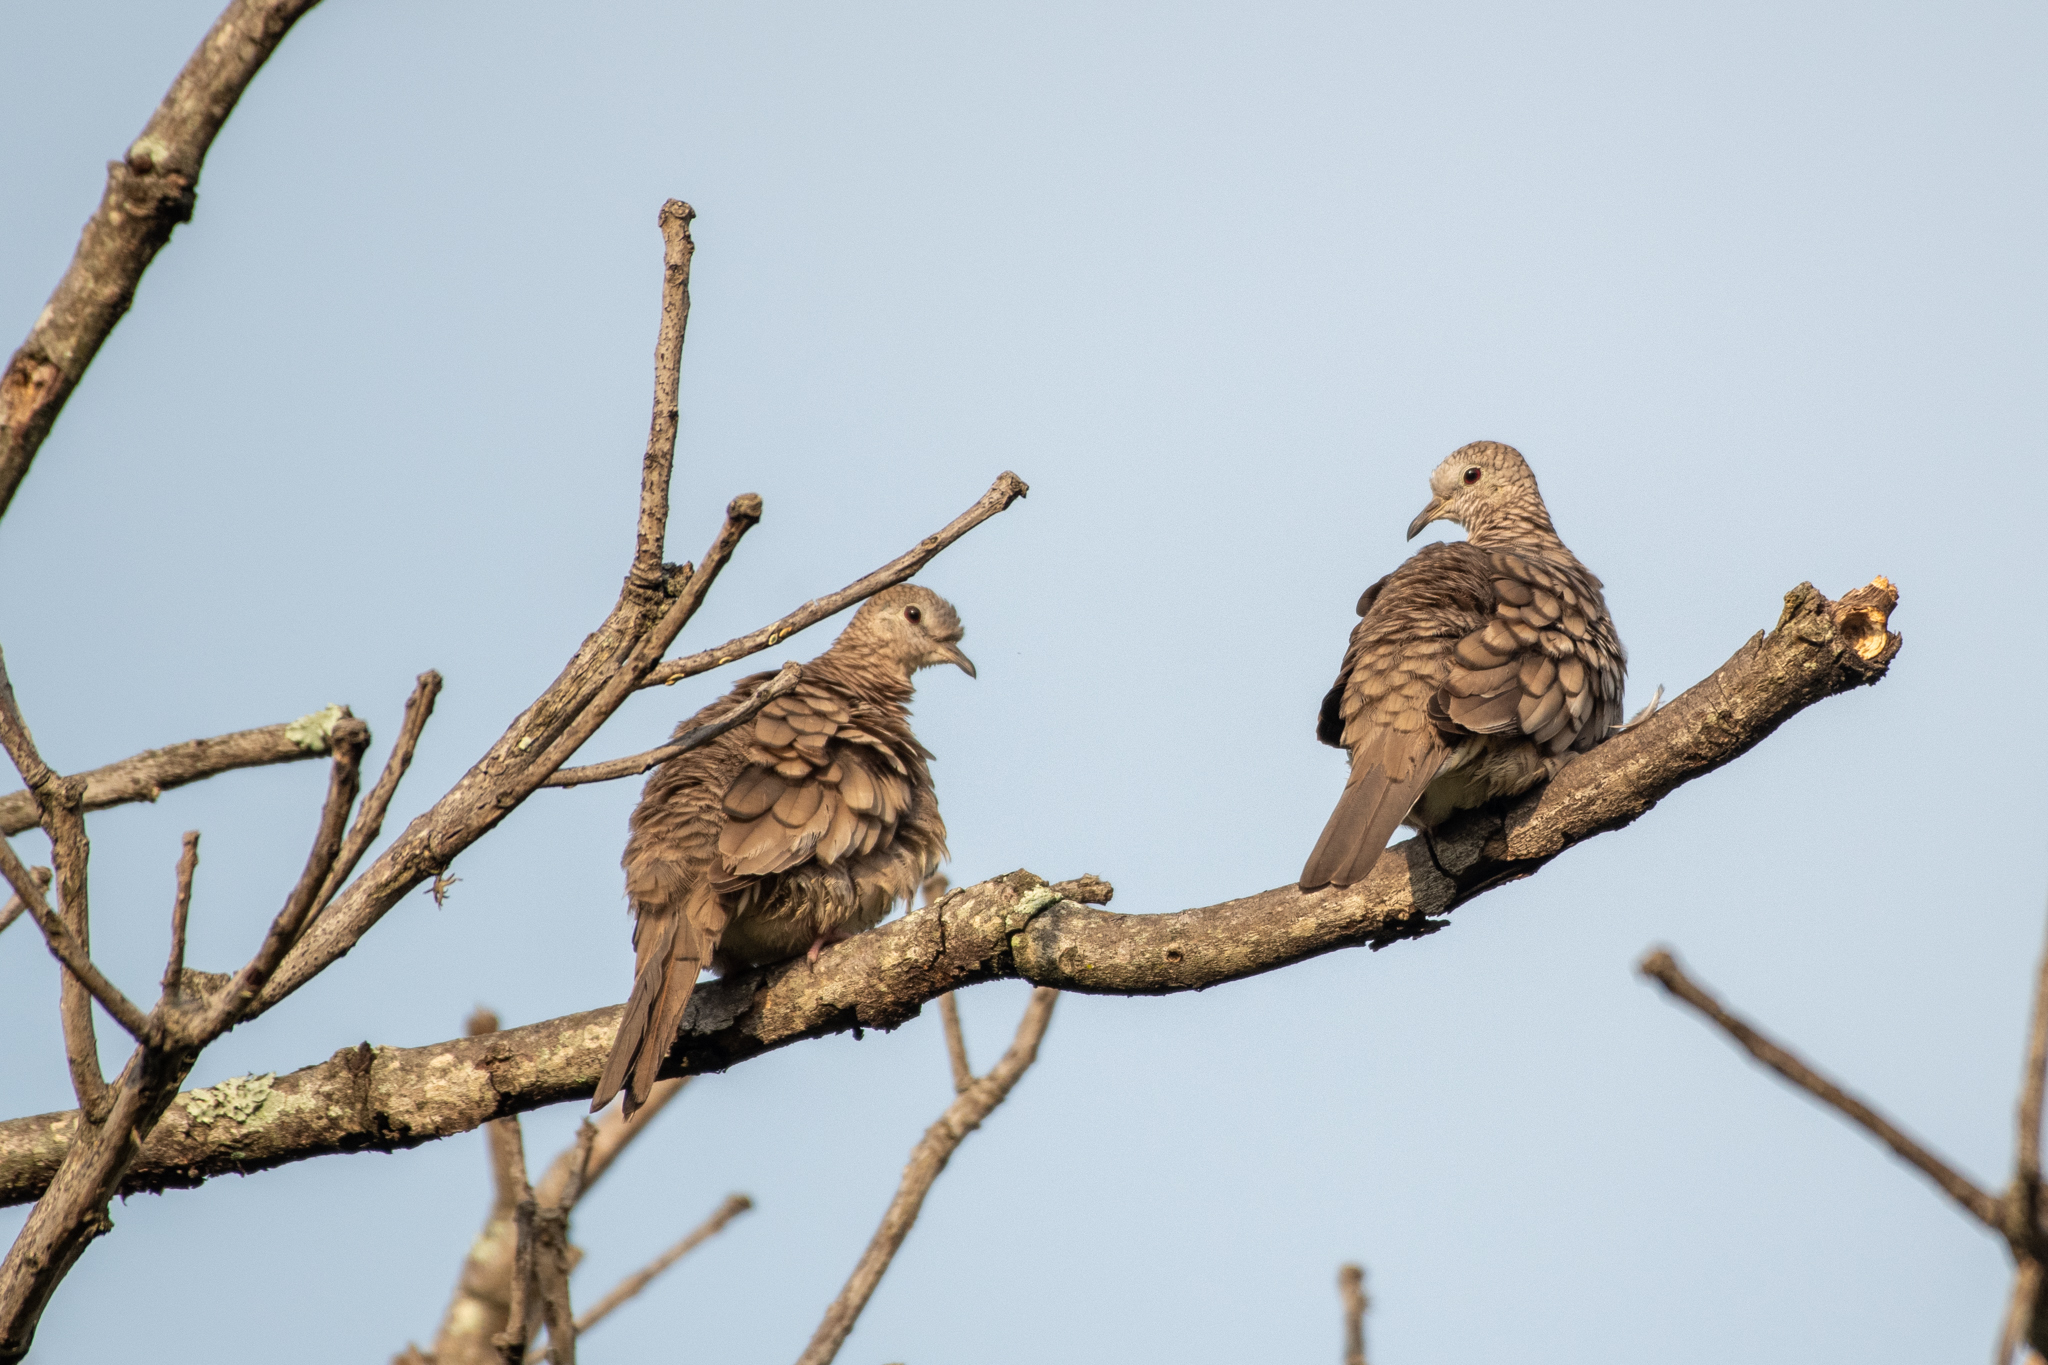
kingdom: Animalia
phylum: Chordata
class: Aves
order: Columbiformes
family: Columbidae
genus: Columbina
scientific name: Columbina inca
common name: Inca dove
